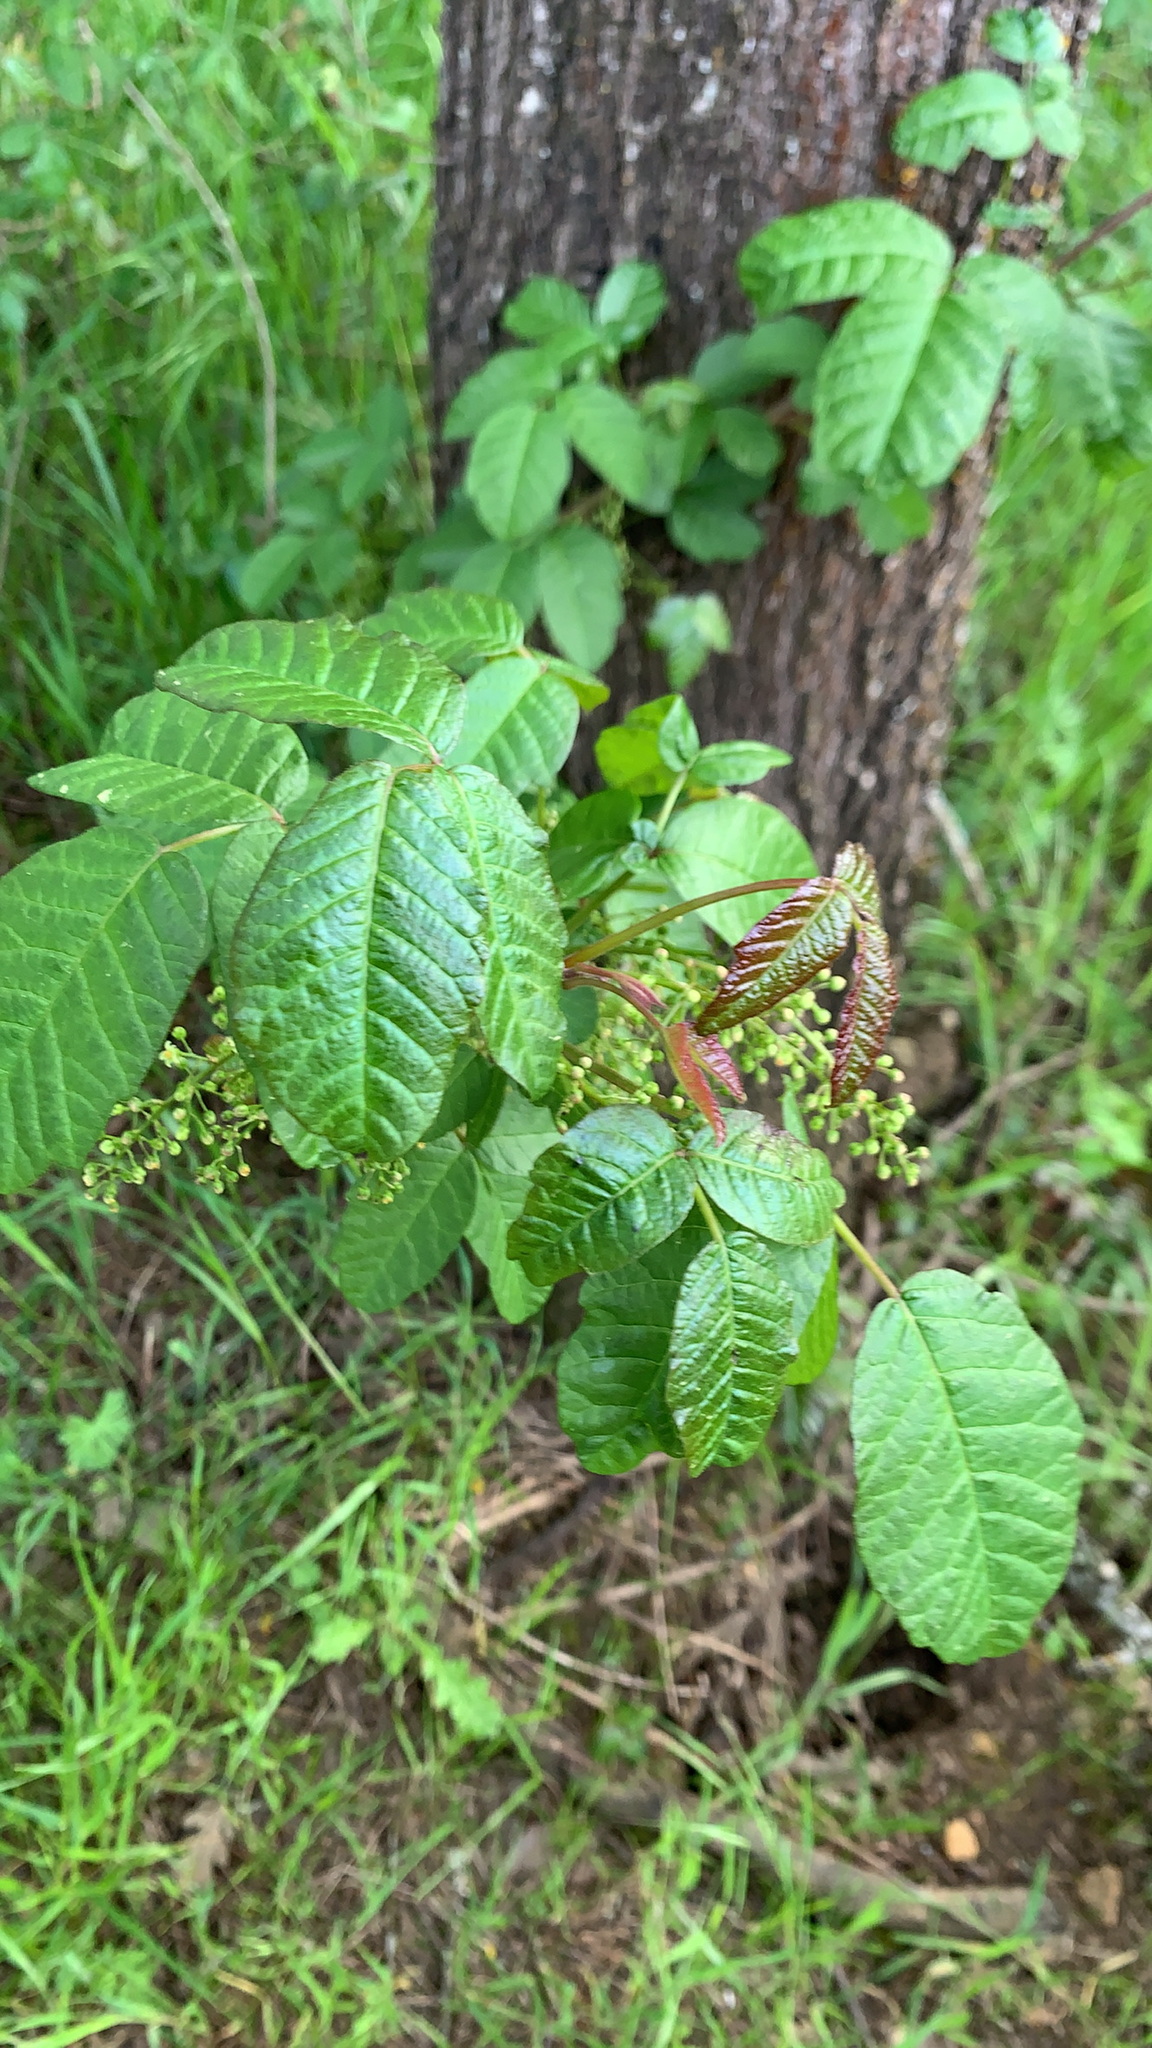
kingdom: Plantae
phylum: Tracheophyta
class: Magnoliopsida
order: Sapindales
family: Anacardiaceae
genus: Toxicodendron
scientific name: Toxicodendron diversilobum
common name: Pacific poison-oak
